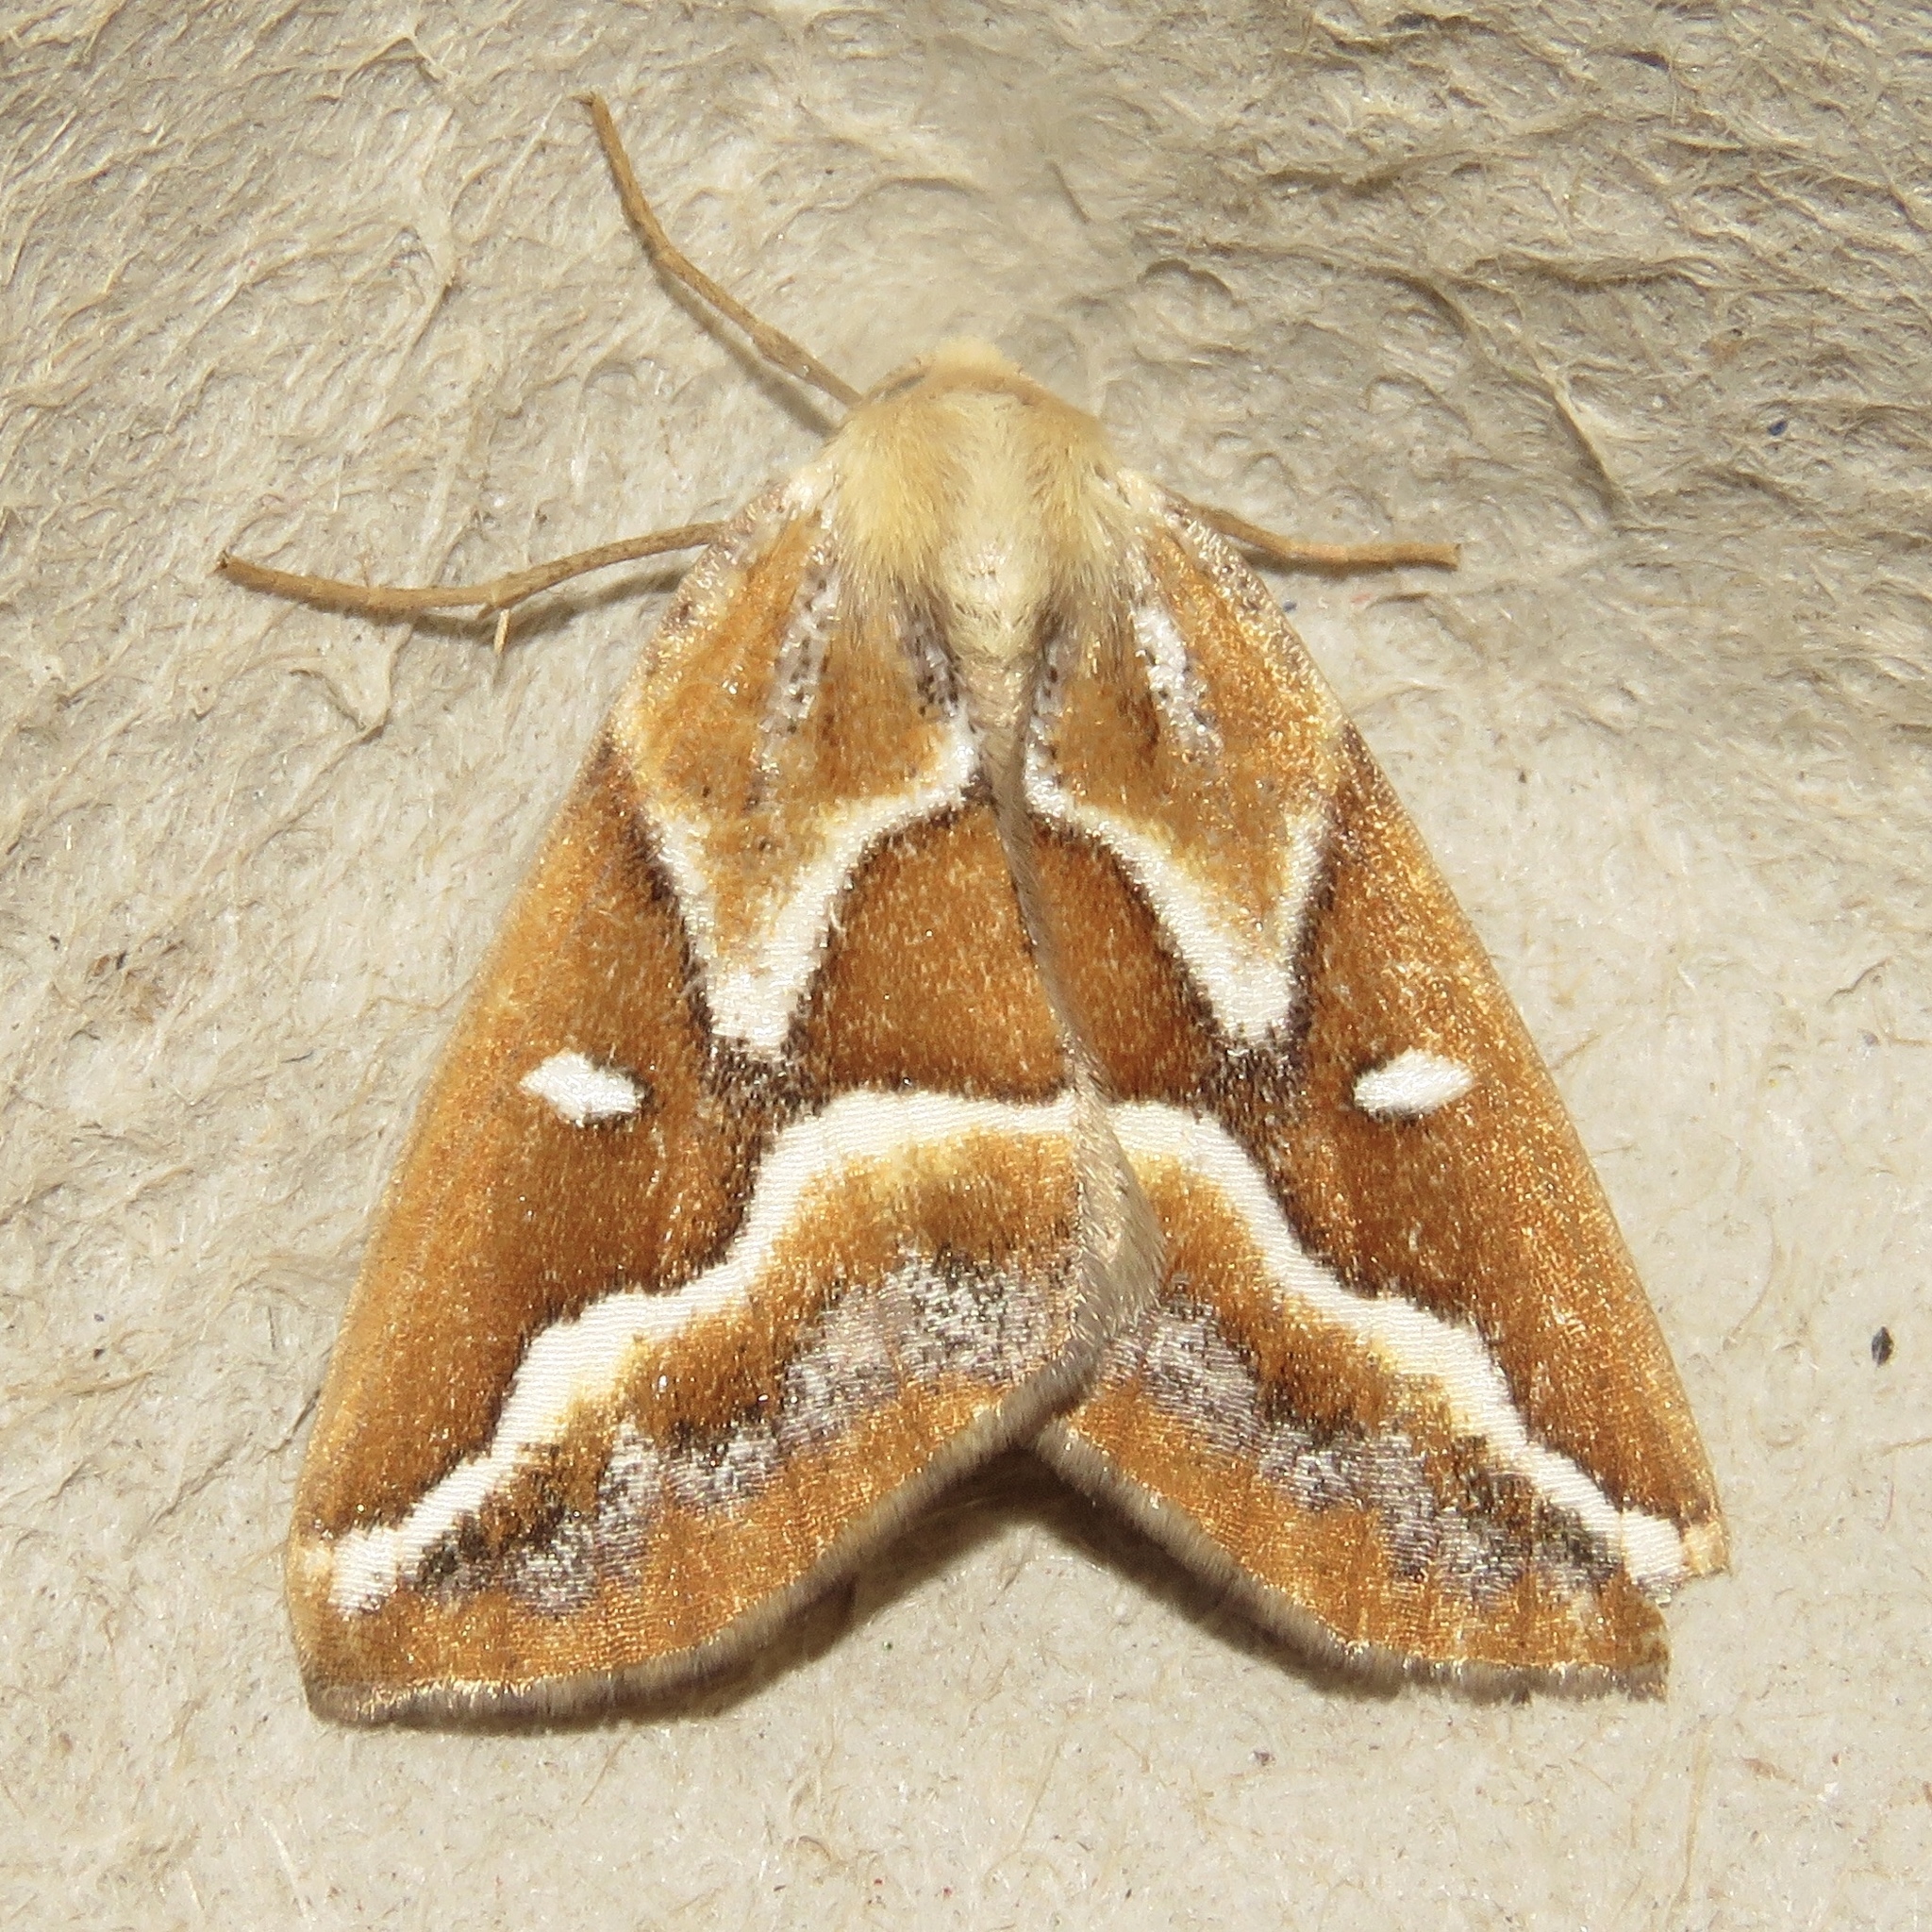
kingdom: Animalia
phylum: Arthropoda
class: Insecta
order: Lepidoptera
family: Geometridae
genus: Caripeta
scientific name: Caripeta angustiorata
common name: Brown pine looper
